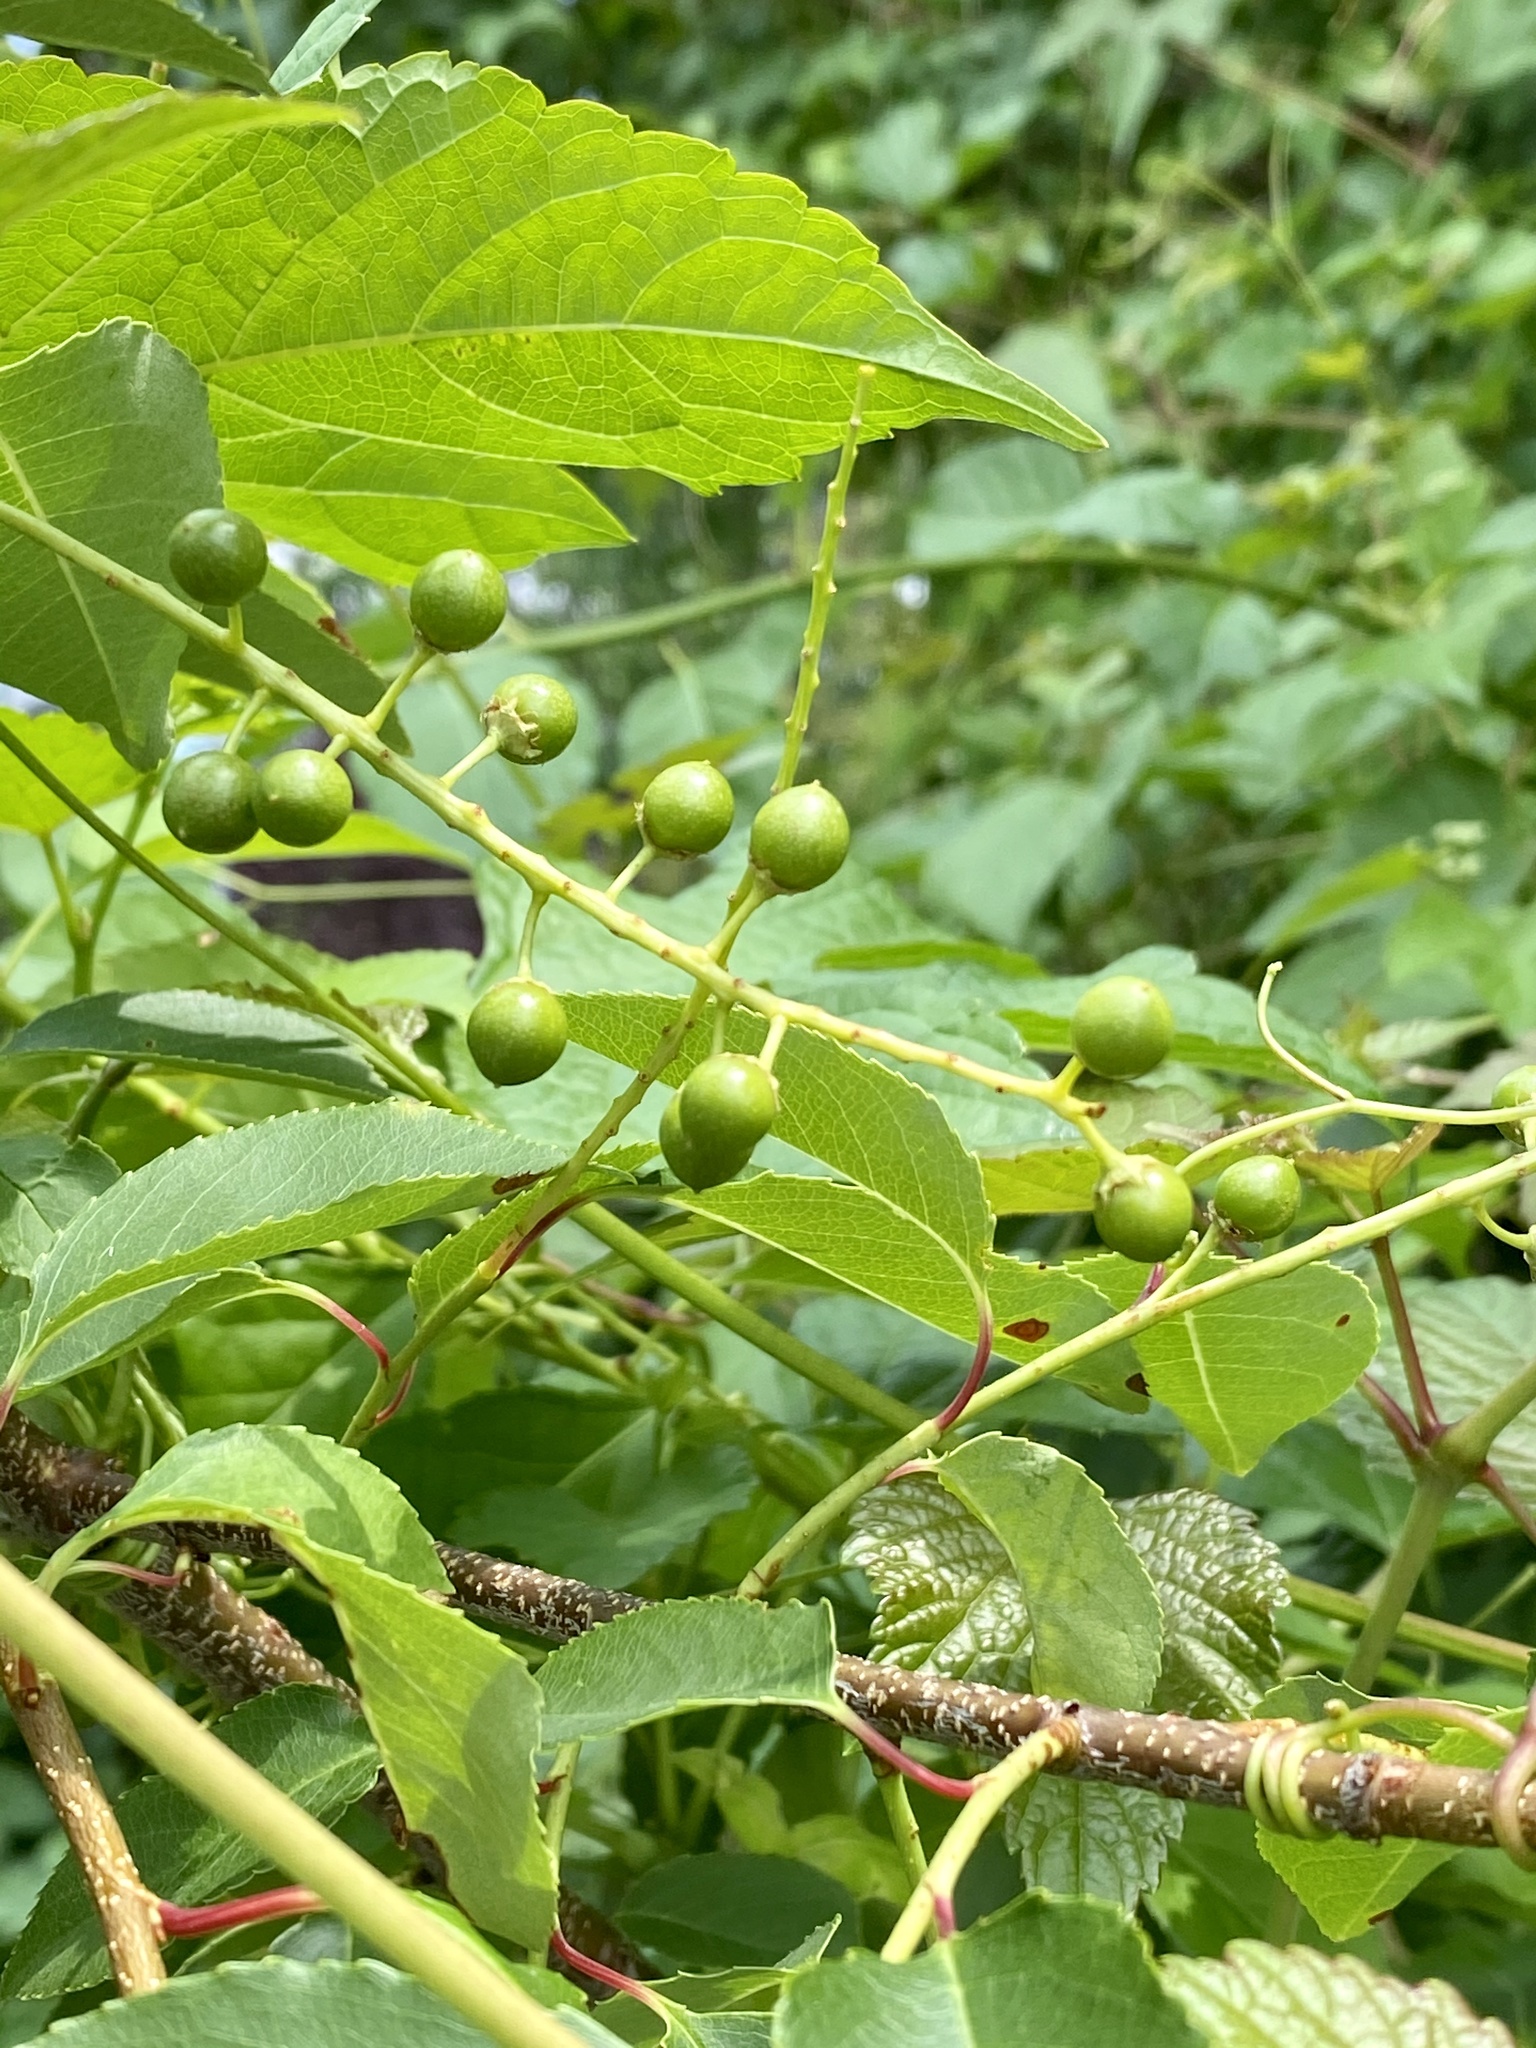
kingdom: Plantae
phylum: Tracheophyta
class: Magnoliopsida
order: Rosales
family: Rosaceae
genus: Prunus
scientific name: Prunus serotina
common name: Black cherry
